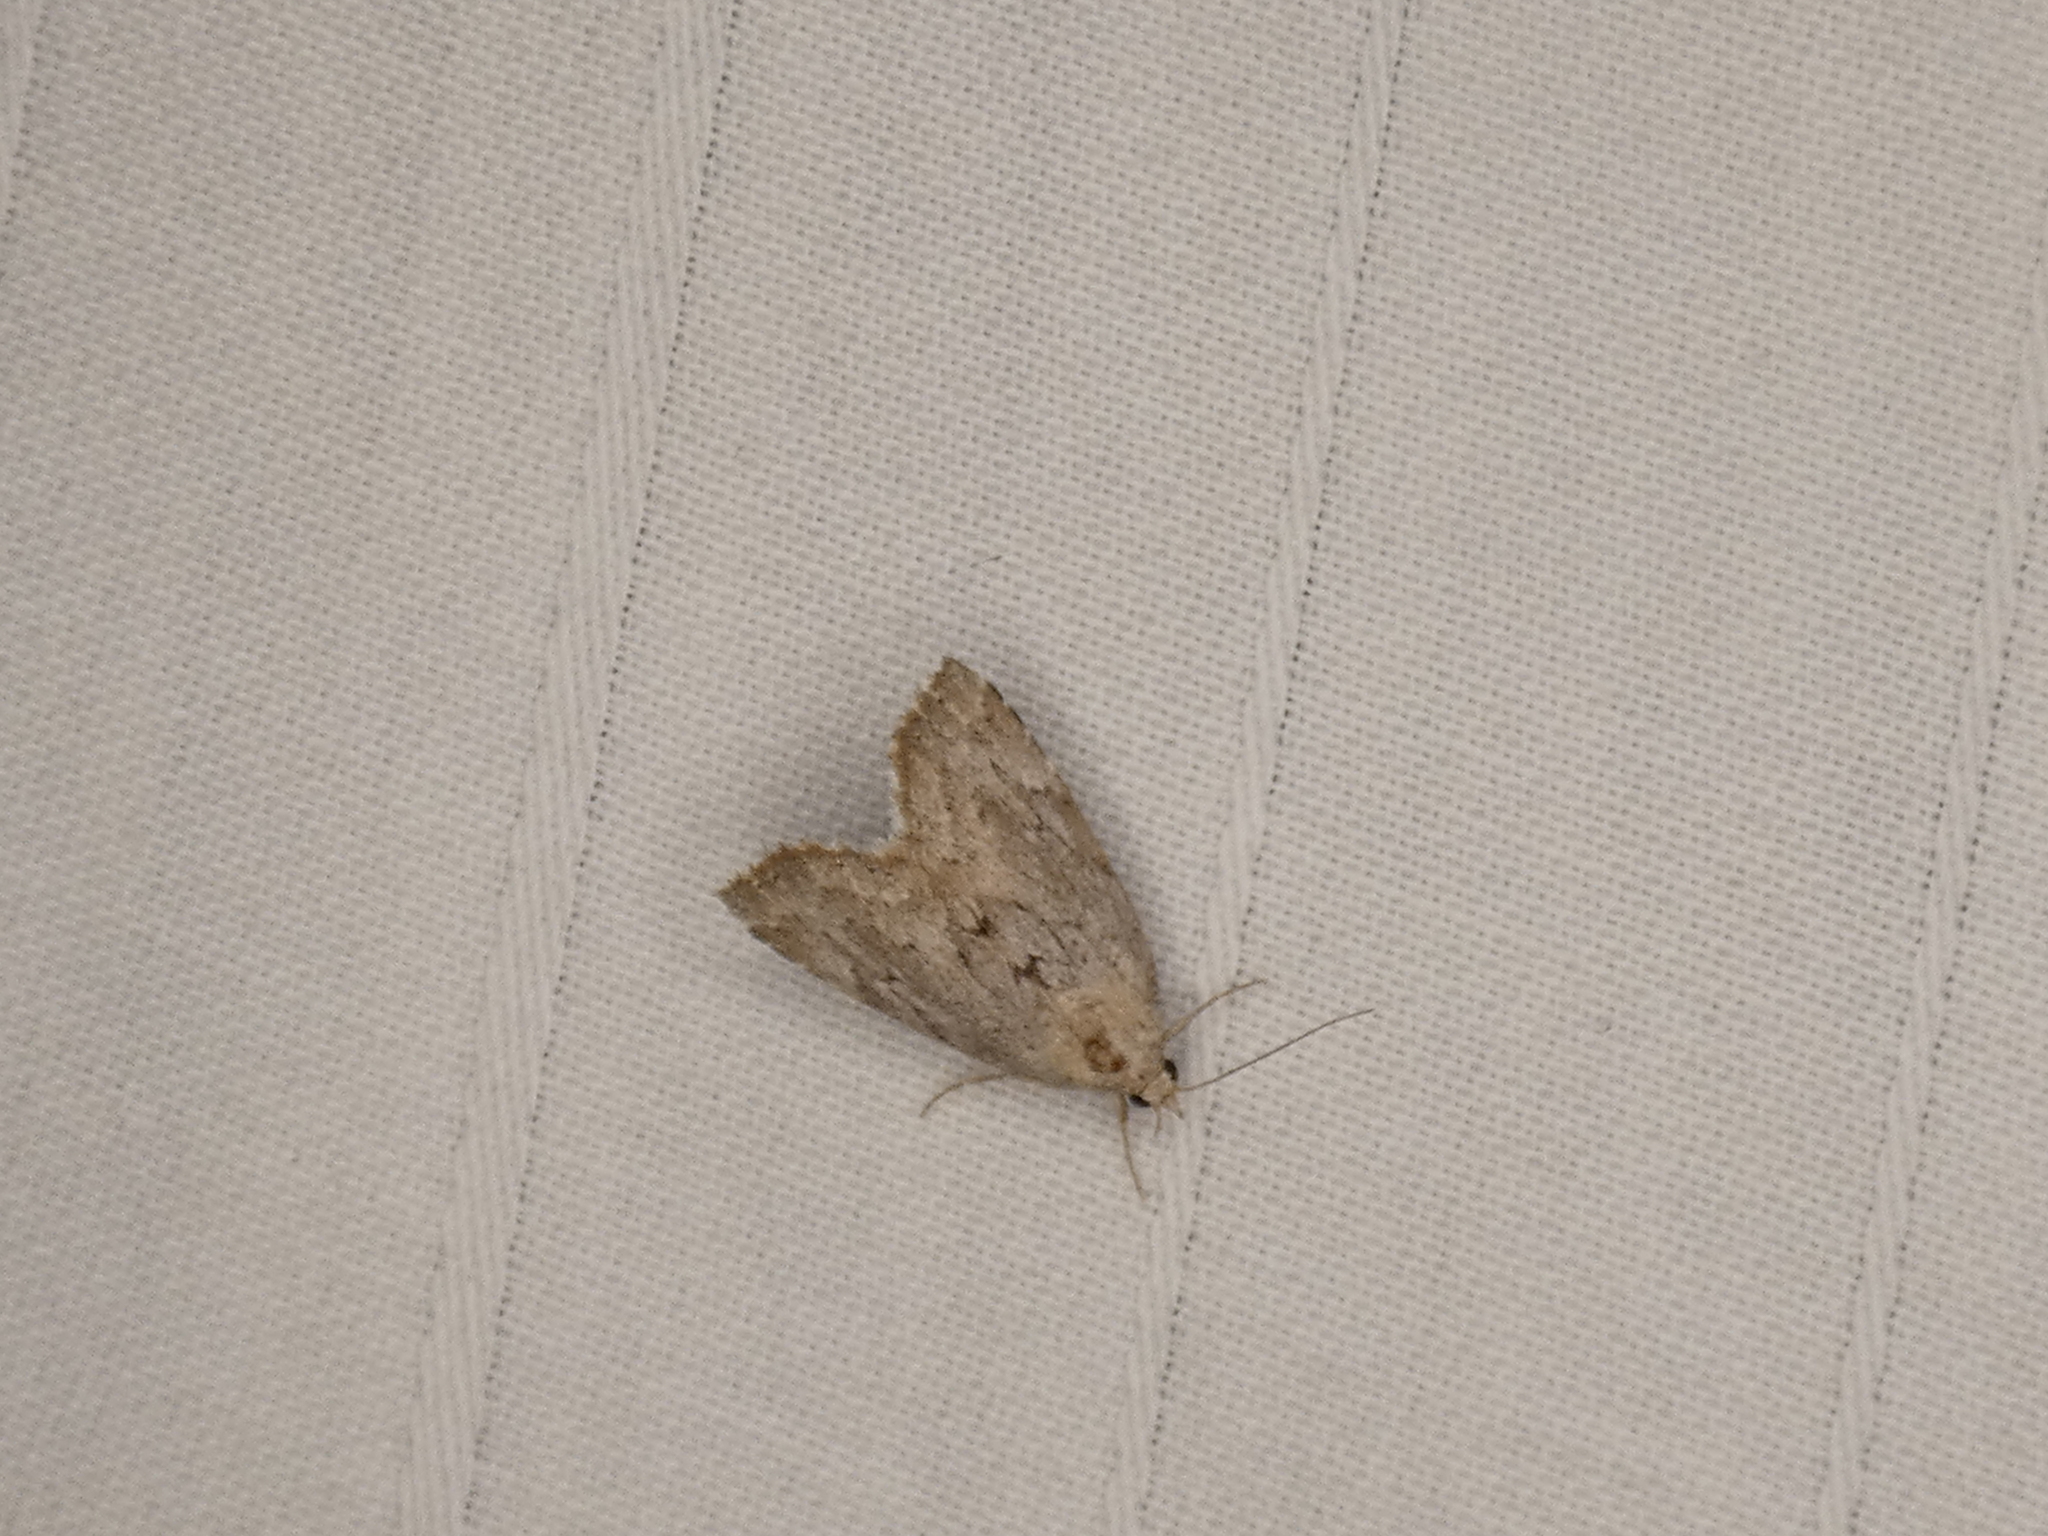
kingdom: Animalia
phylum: Arthropoda
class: Insecta
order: Lepidoptera
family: Erebidae
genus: Cutina
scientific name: Cutina albopunctella
